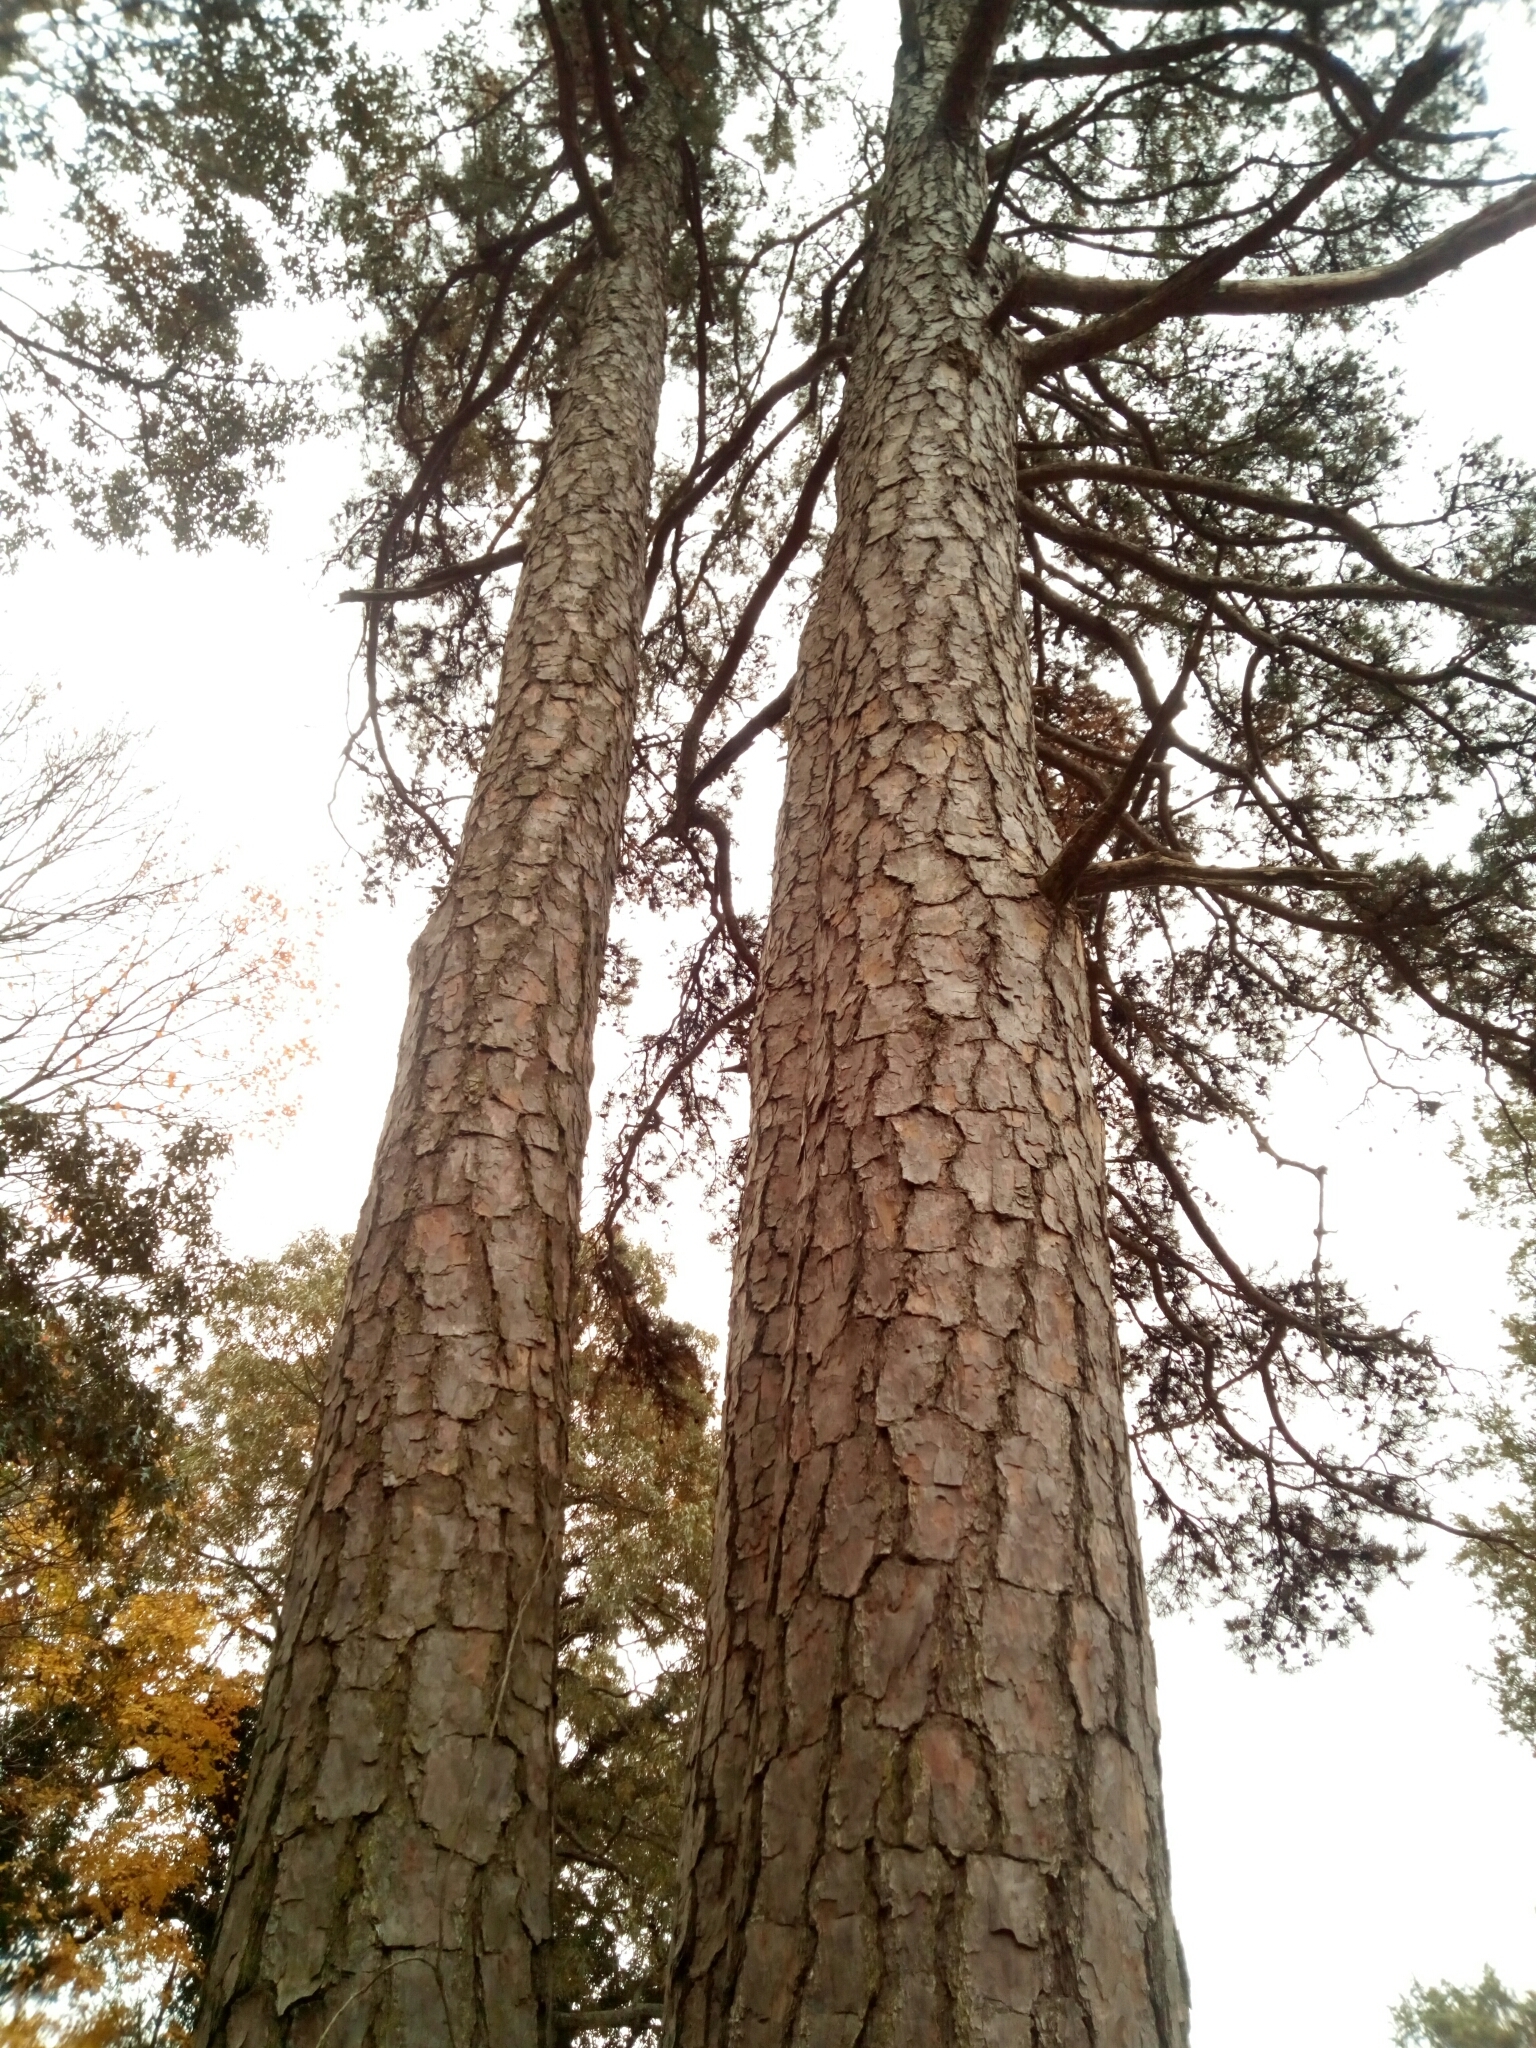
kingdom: Plantae
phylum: Tracheophyta
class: Pinopsida
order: Pinales
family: Pinaceae
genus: Pinus
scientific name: Pinus echinata
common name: Shortleaf pine
